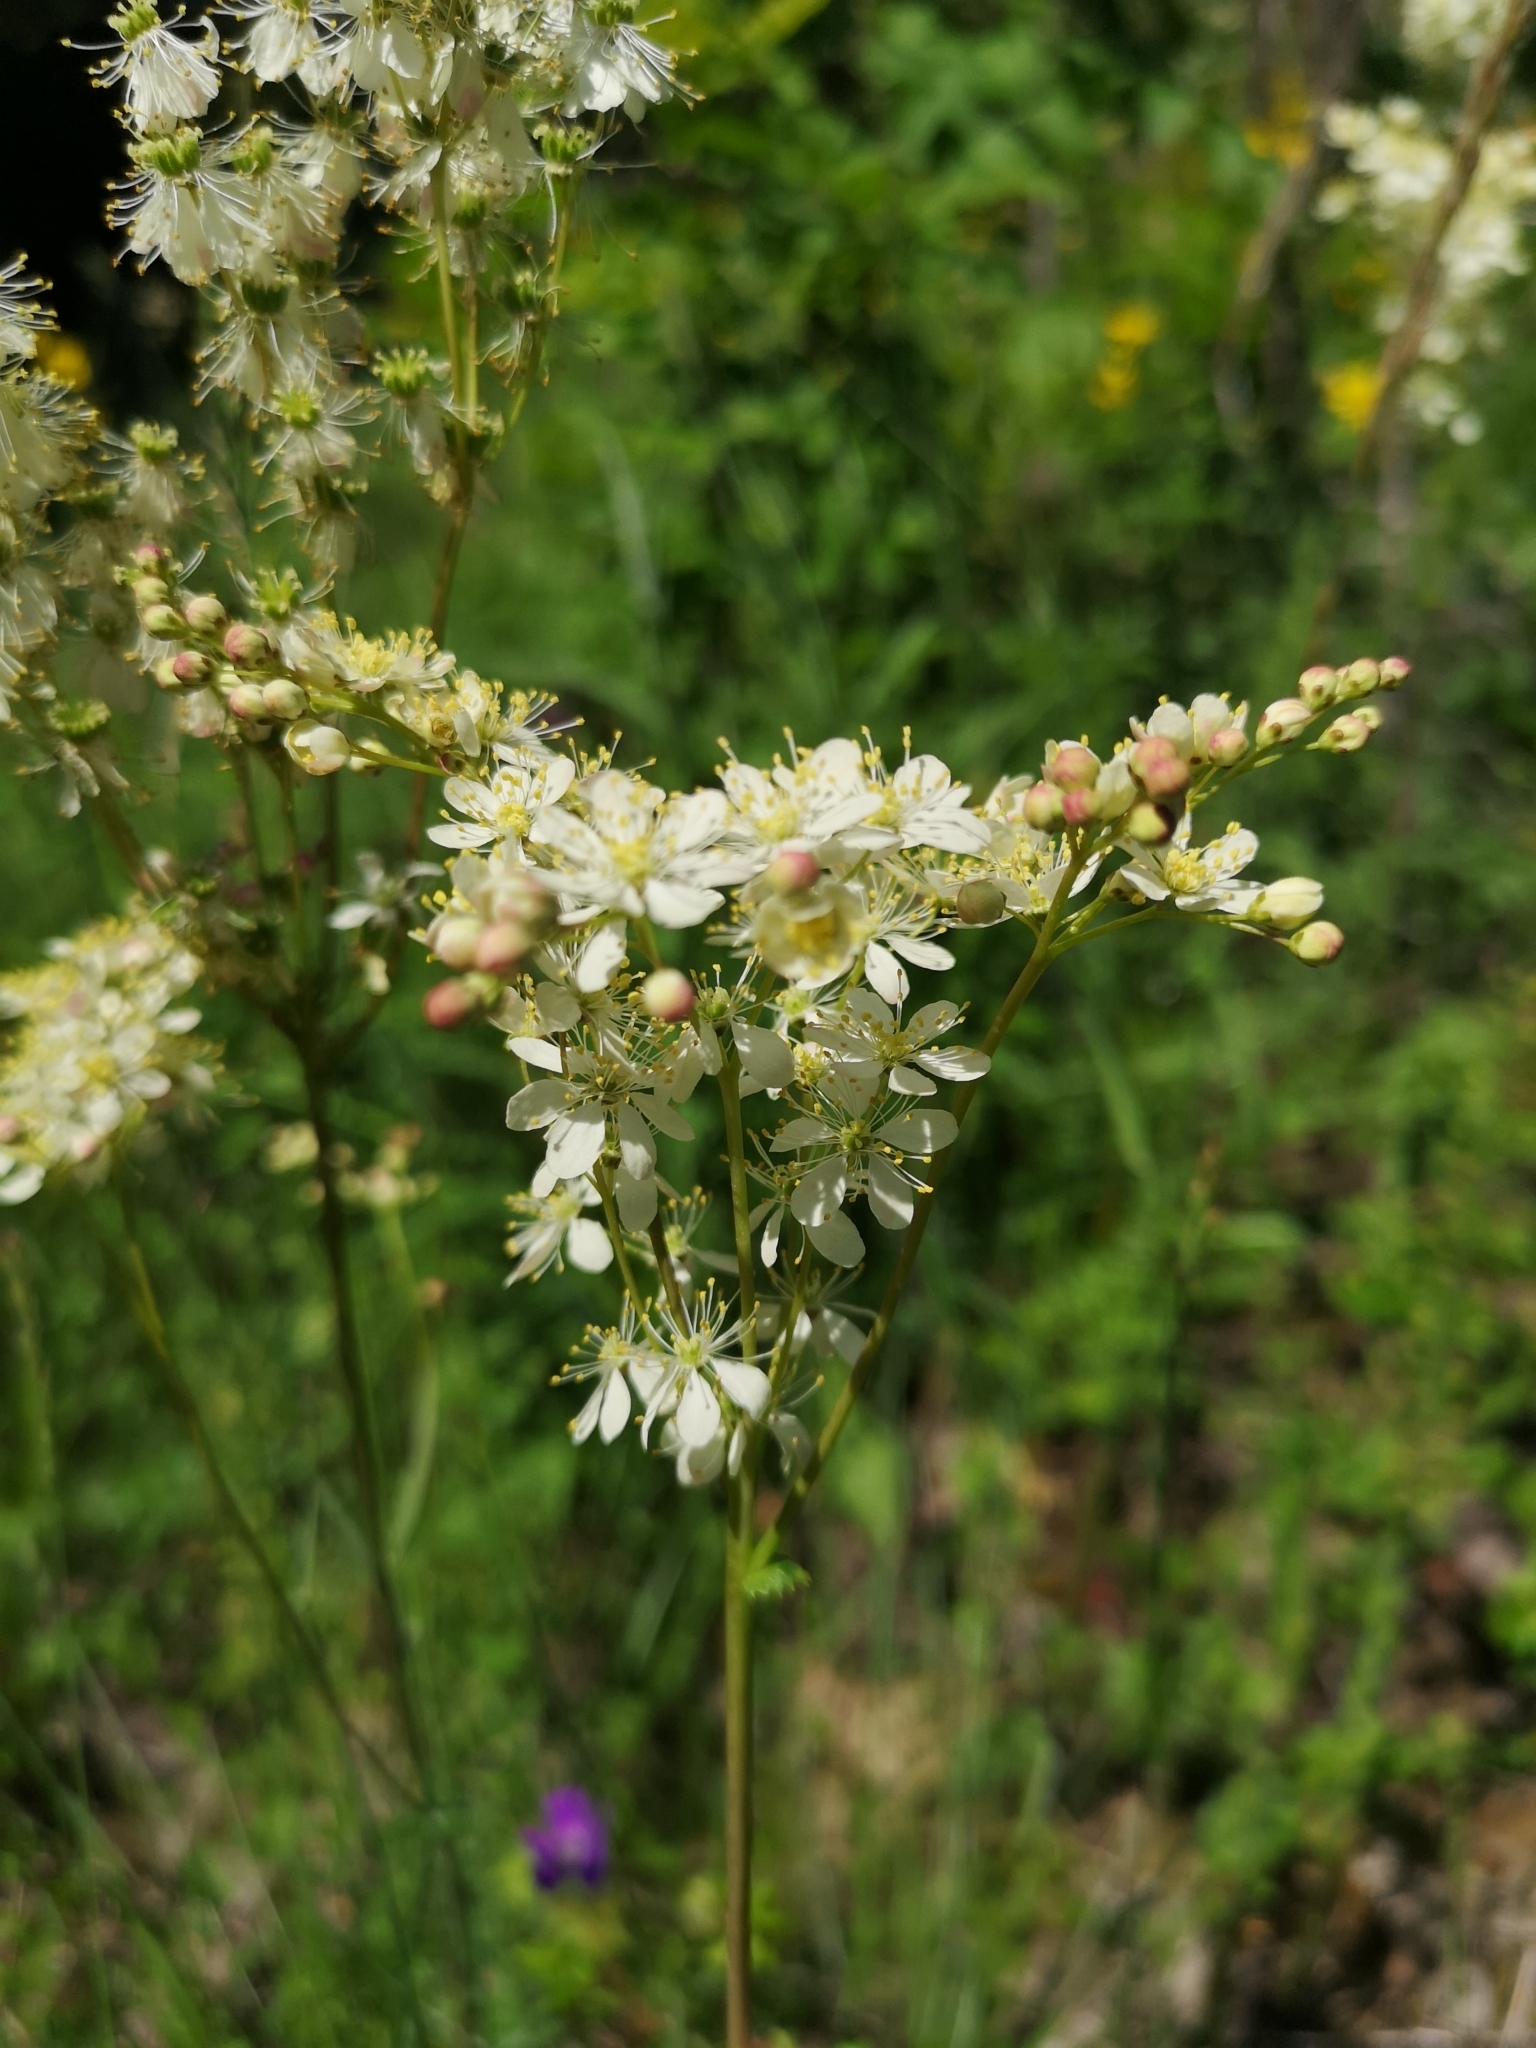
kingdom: Plantae
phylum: Tracheophyta
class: Magnoliopsida
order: Rosales
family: Rosaceae
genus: Filipendula
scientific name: Filipendula vulgaris
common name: Dropwort
